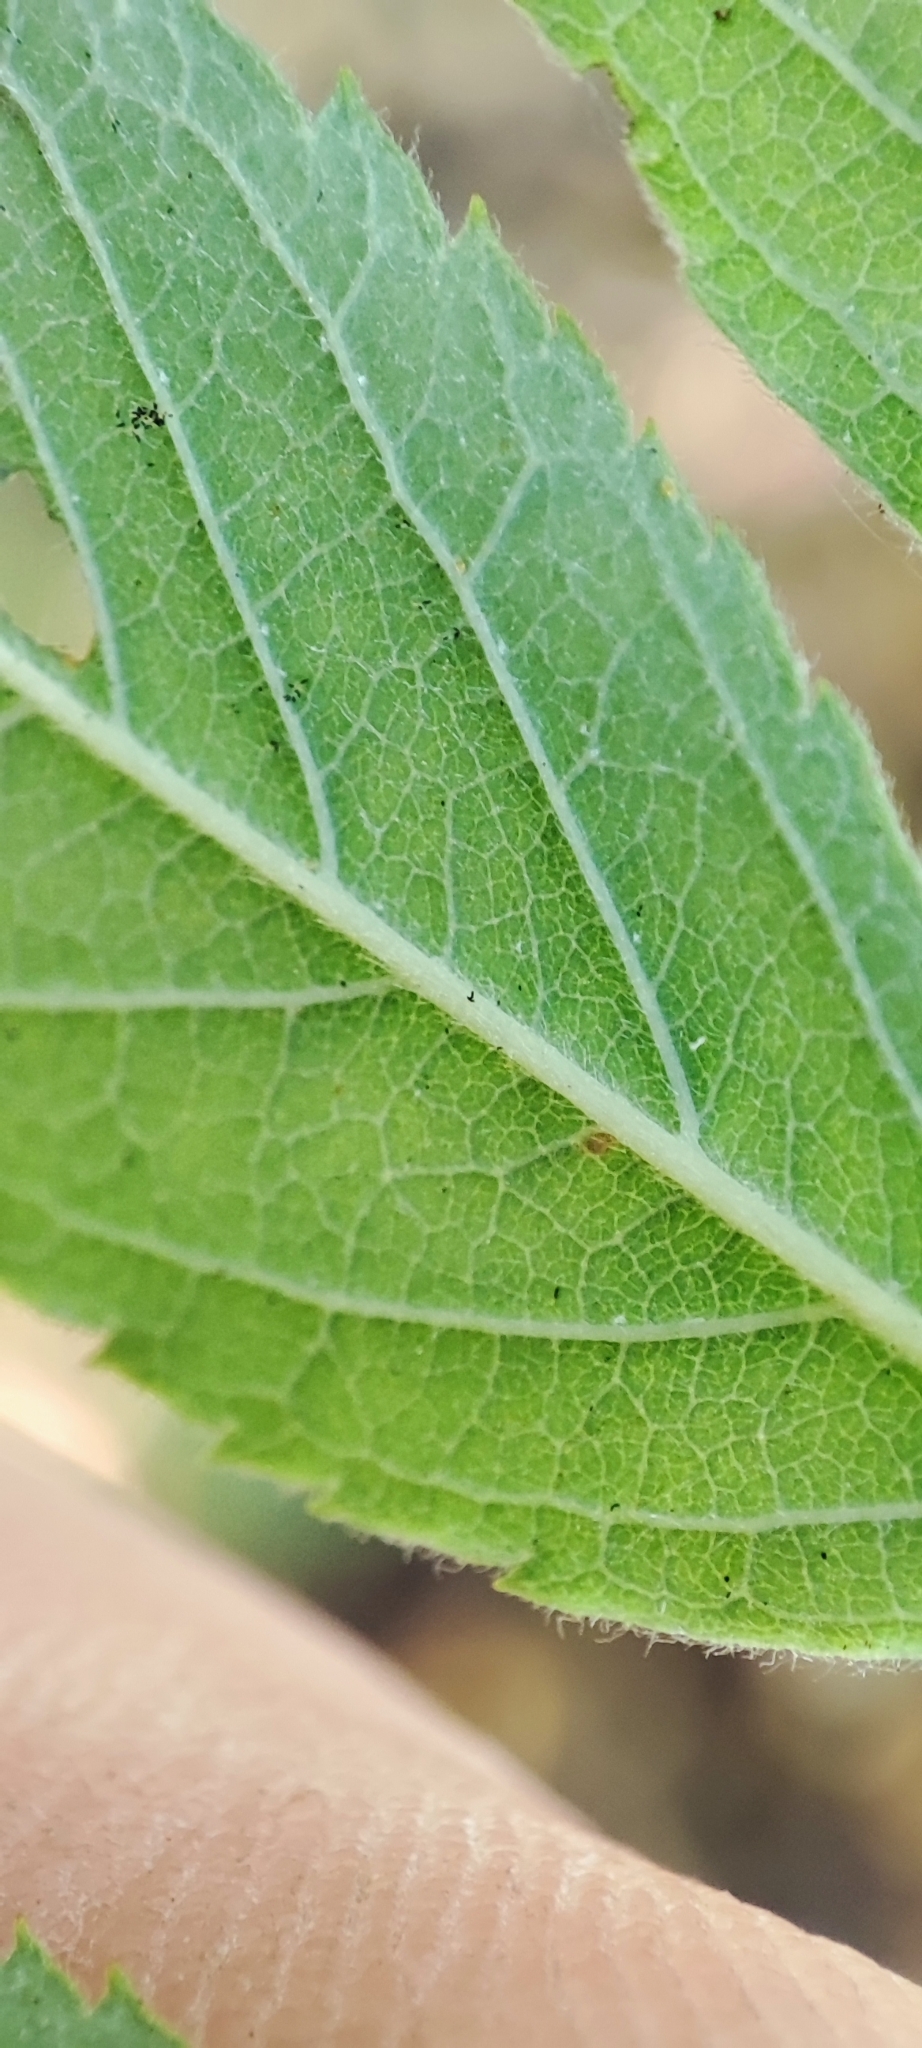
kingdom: Plantae
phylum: Tracheophyta
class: Magnoliopsida
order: Rosales
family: Rosaceae
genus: Rosa
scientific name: Rosa majalis
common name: Cinnamon rose
